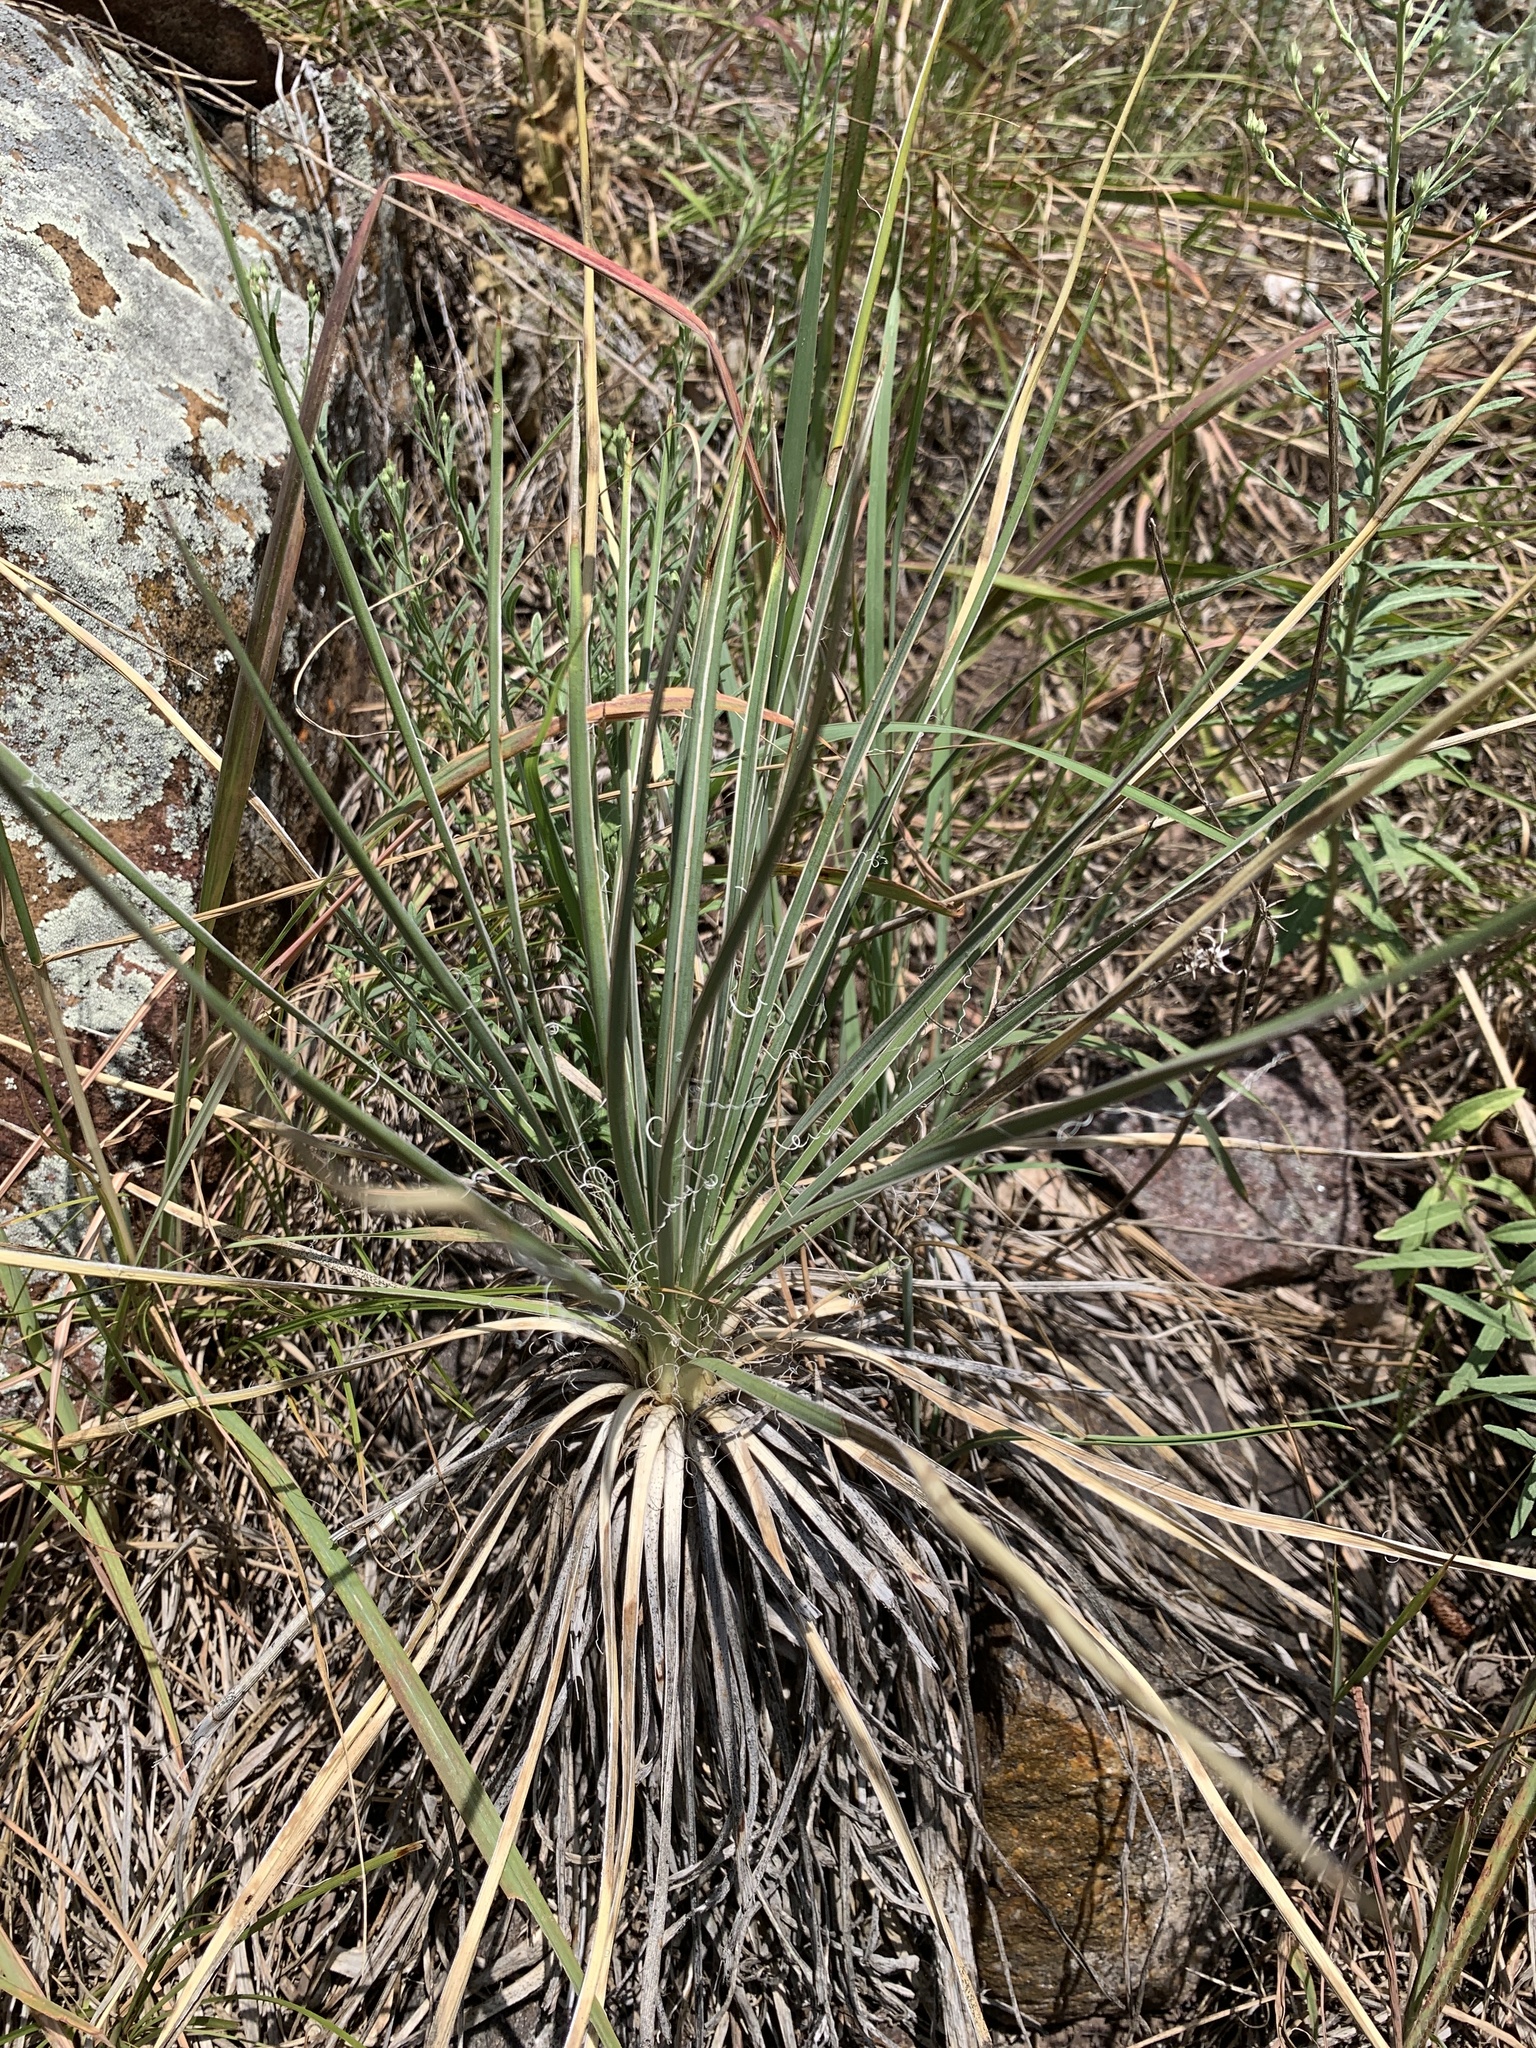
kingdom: Plantae
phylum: Tracheophyta
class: Liliopsida
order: Asparagales
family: Asparagaceae
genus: Yucca
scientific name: Yucca glauca
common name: Great plains yucca
